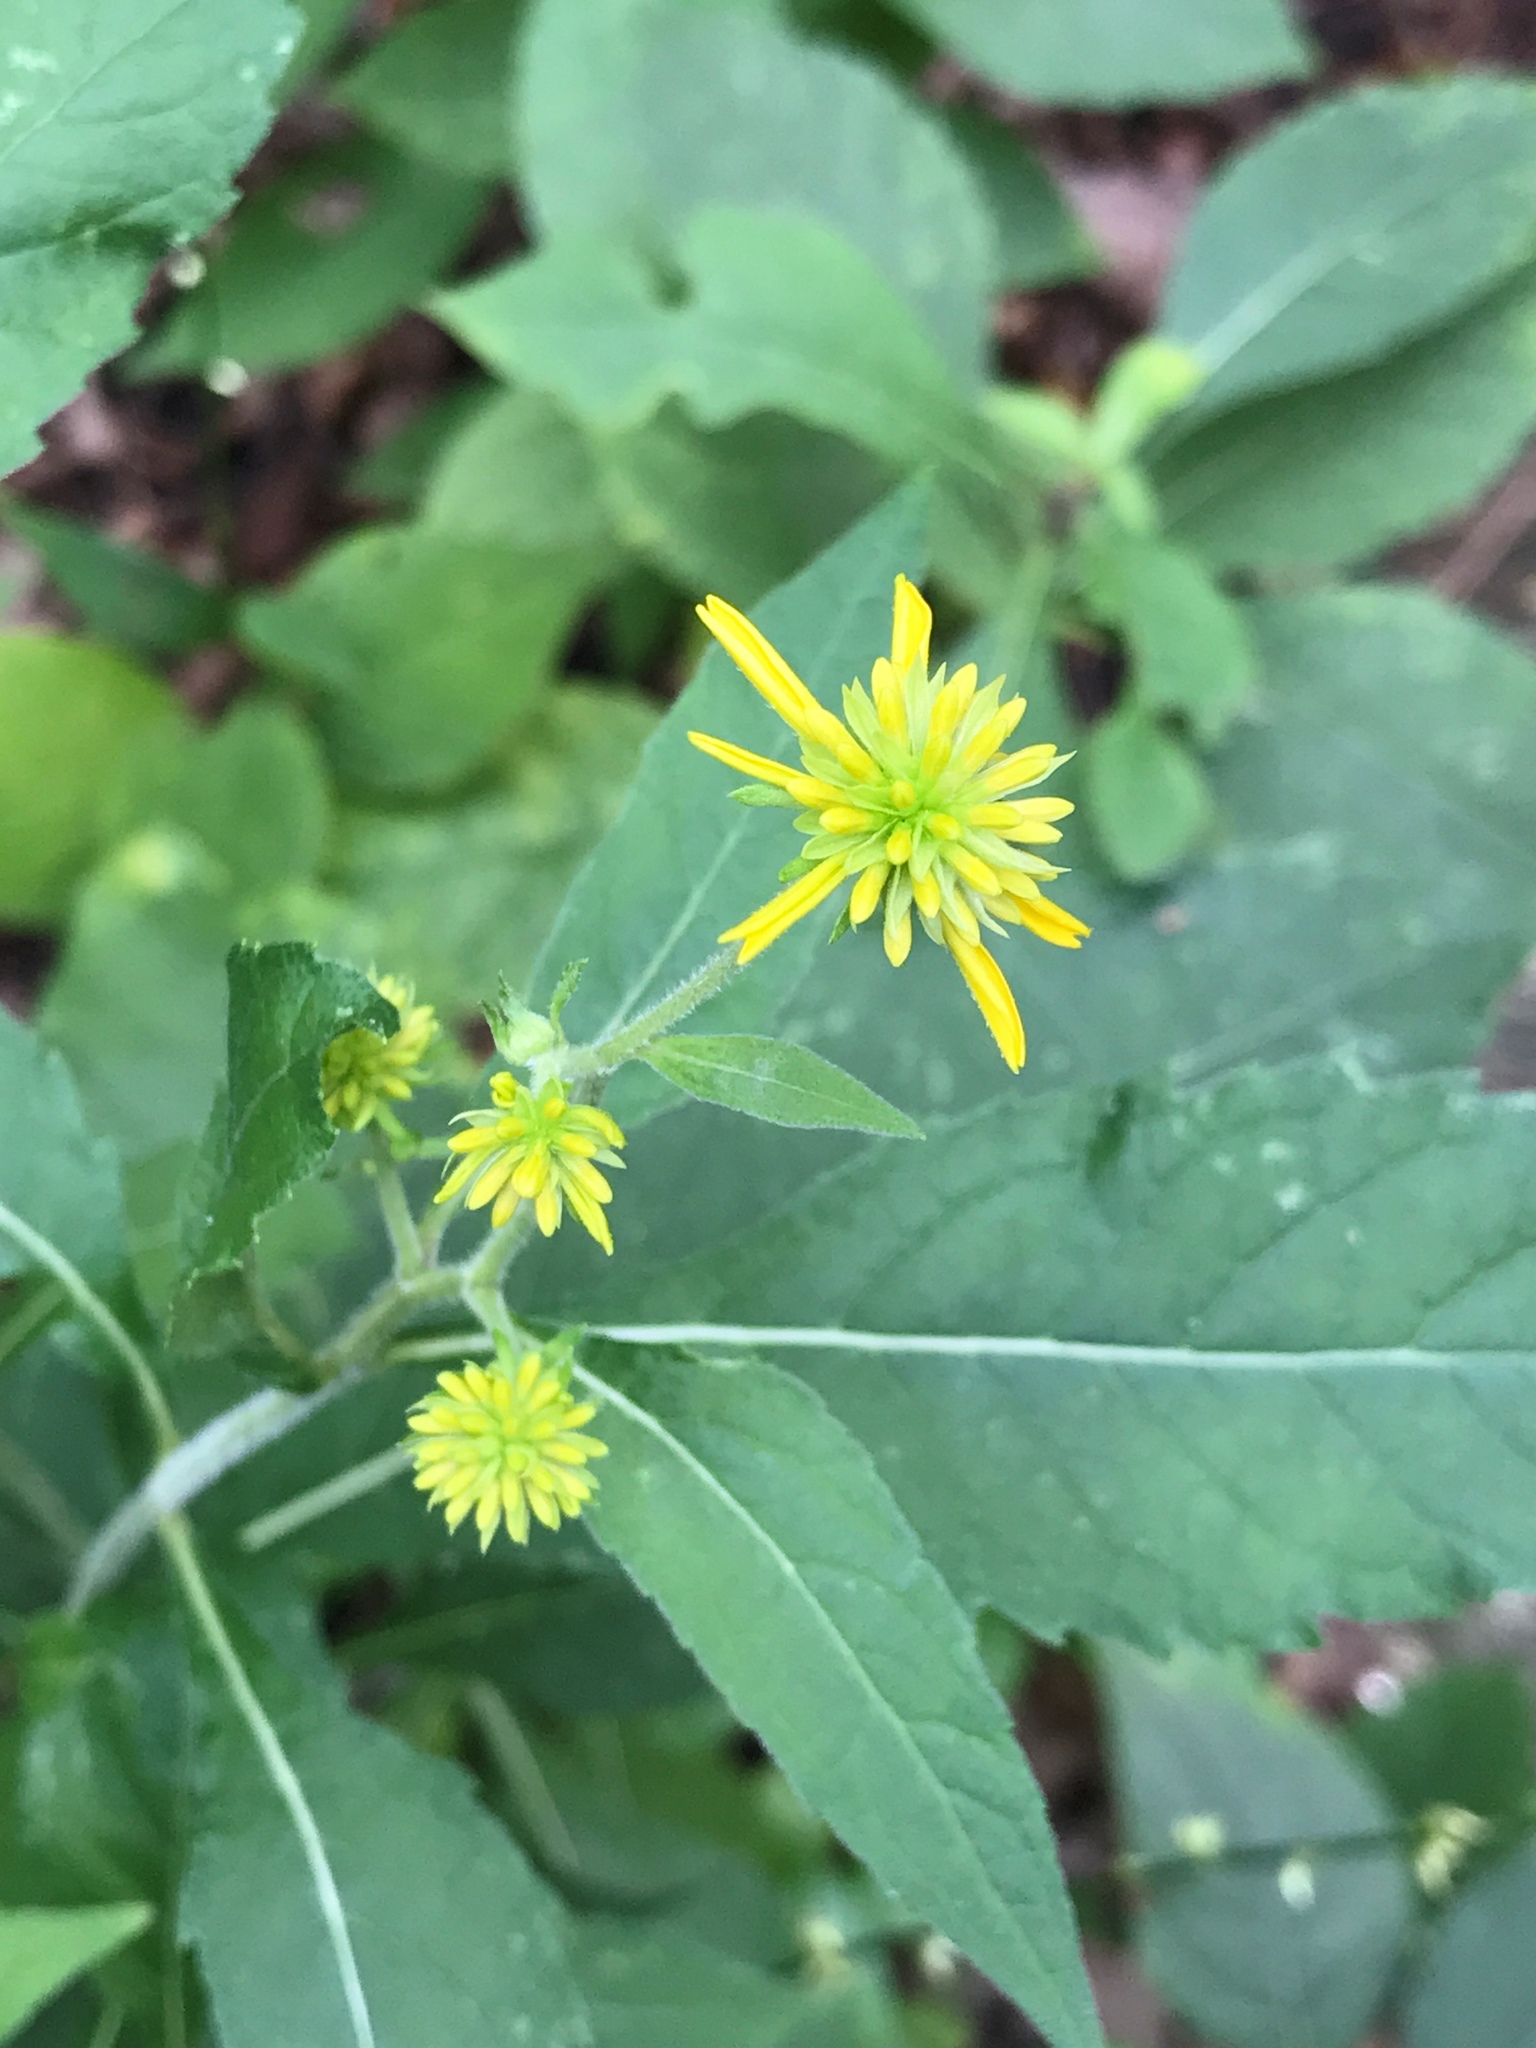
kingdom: Plantae
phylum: Tracheophyta
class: Magnoliopsida
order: Asterales
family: Asteraceae
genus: Verbesina
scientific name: Verbesina alternifolia
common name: Wingstem
